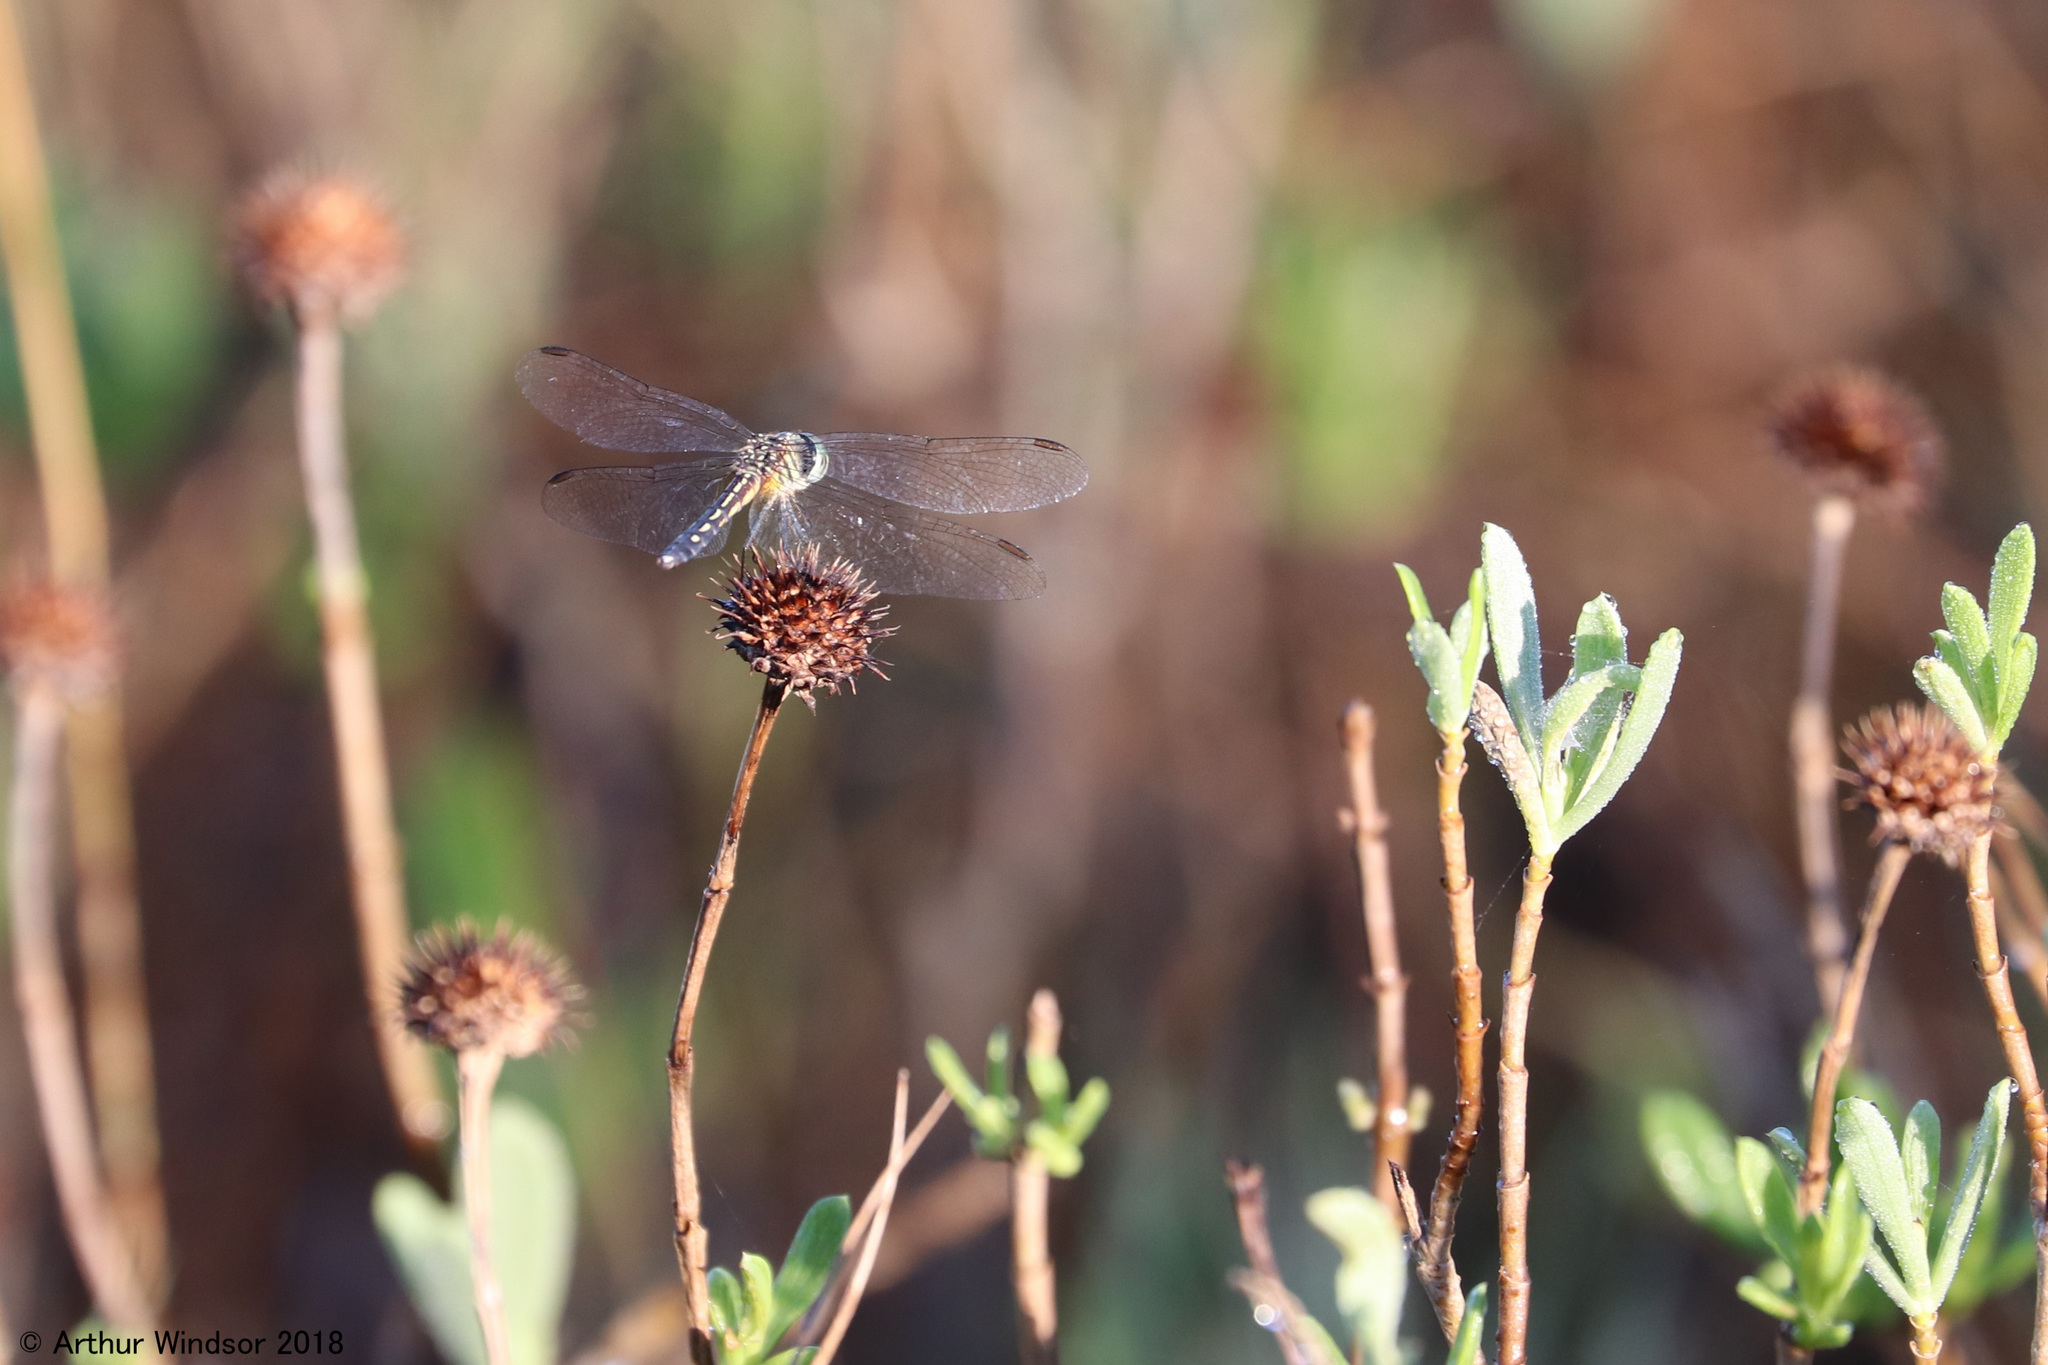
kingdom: Animalia
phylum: Arthropoda
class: Insecta
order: Odonata
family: Libellulidae
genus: Pachydiplax
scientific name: Pachydiplax longipennis
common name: Blue dasher
